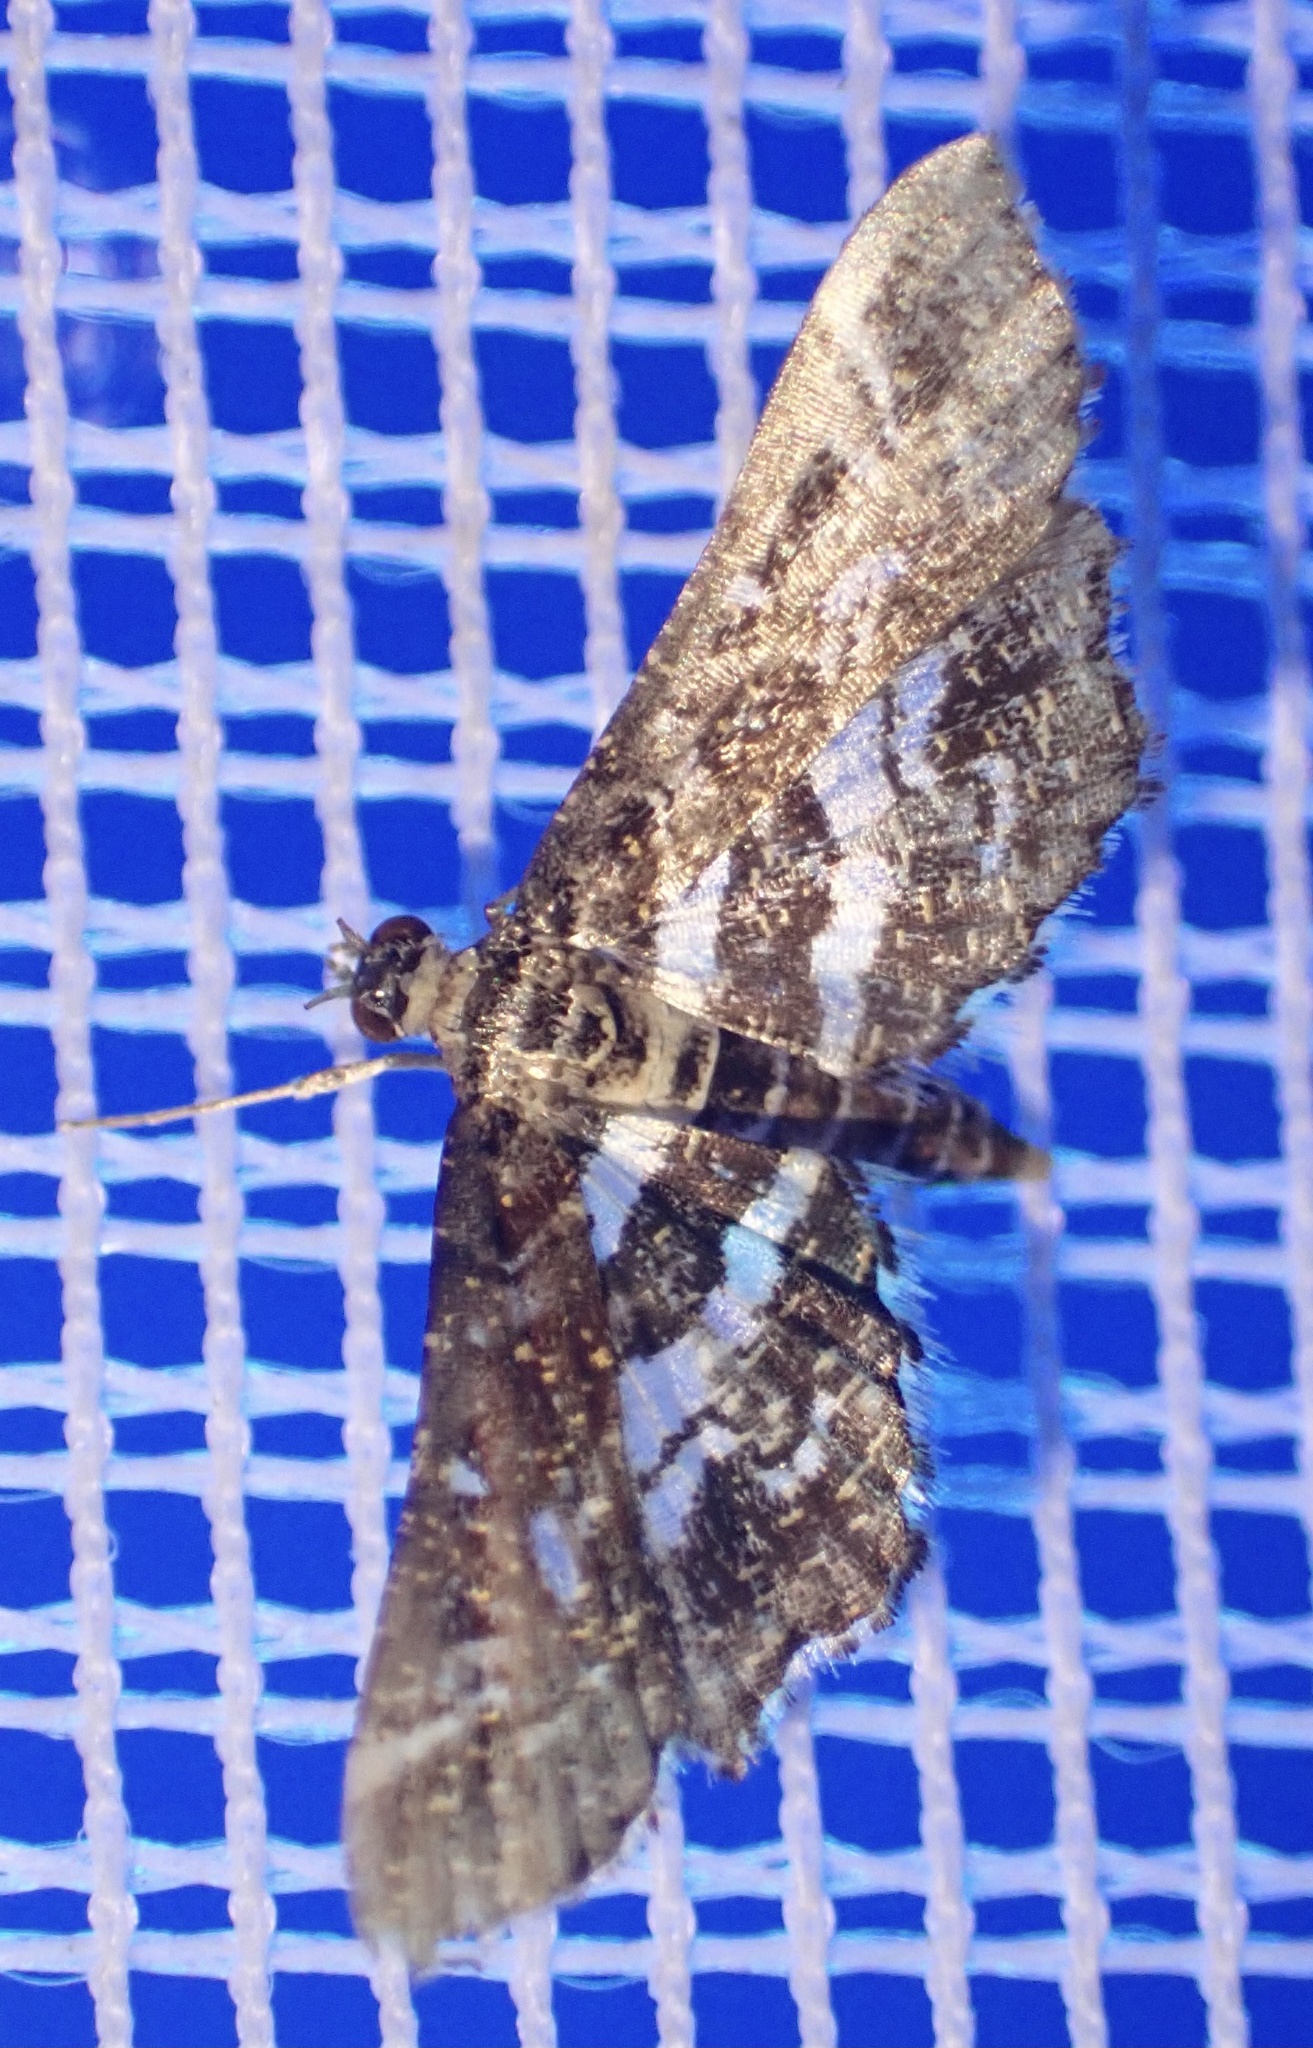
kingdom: Animalia
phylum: Arthropoda
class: Insecta
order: Lepidoptera
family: Crambidae
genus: Diasemiopsis
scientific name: Diasemiopsis ramburialis
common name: Vagrant china-mark
